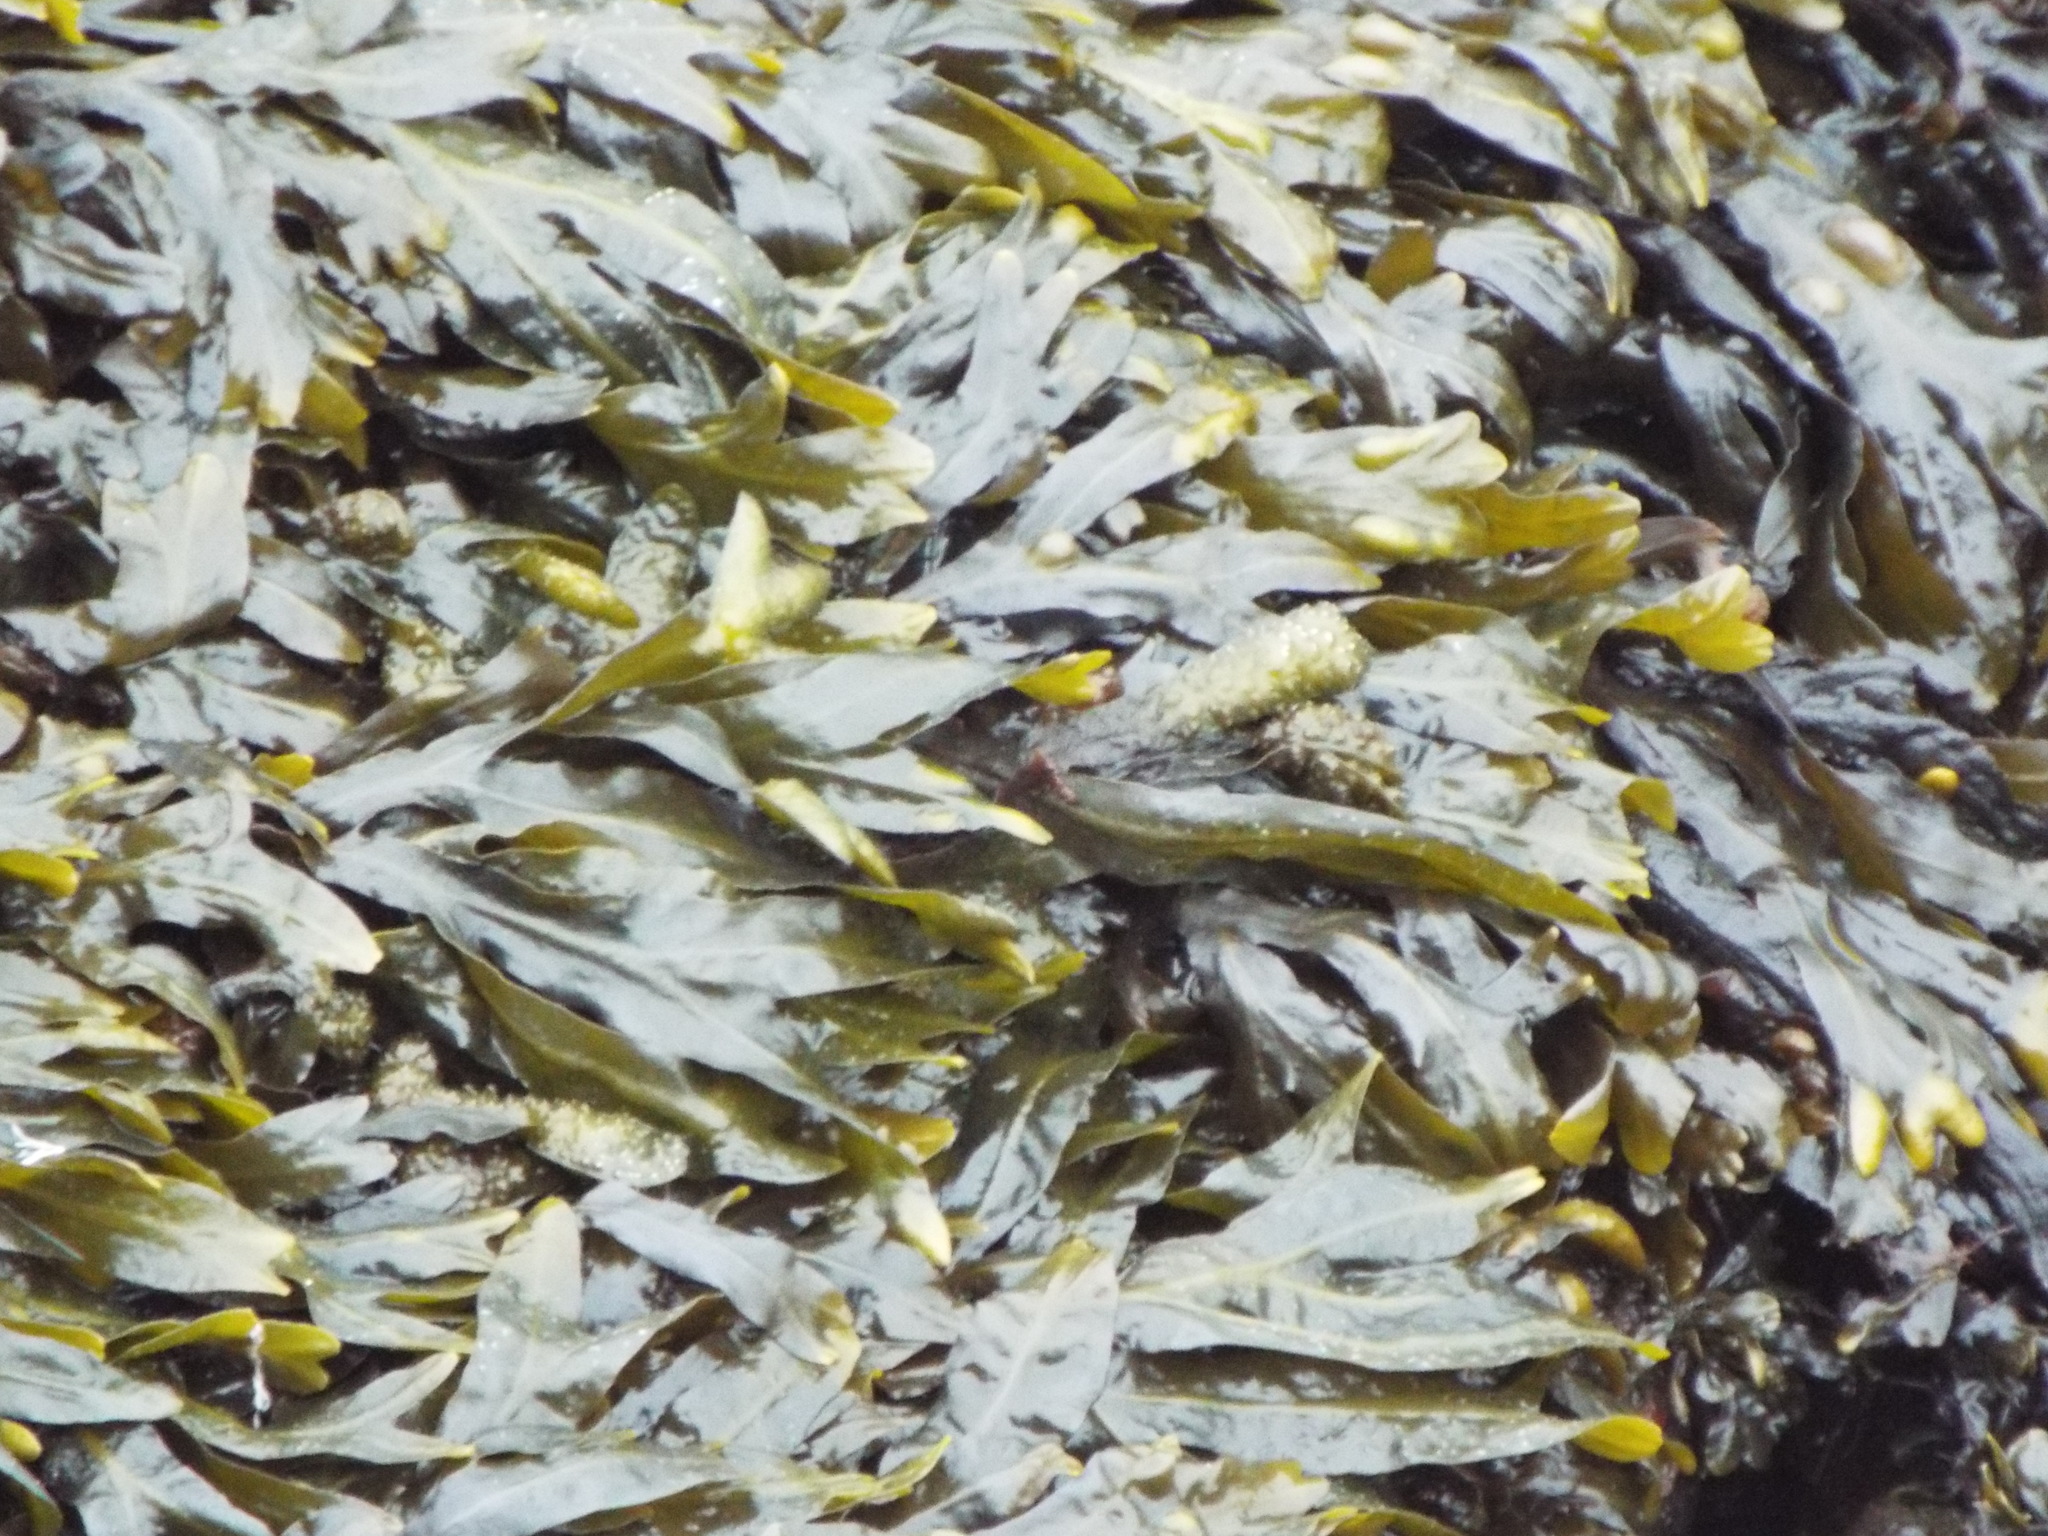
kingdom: Chromista
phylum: Ochrophyta
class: Phaeophyceae
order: Fucales
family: Fucaceae
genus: Fucus
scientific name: Fucus distichus
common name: Rockweed
